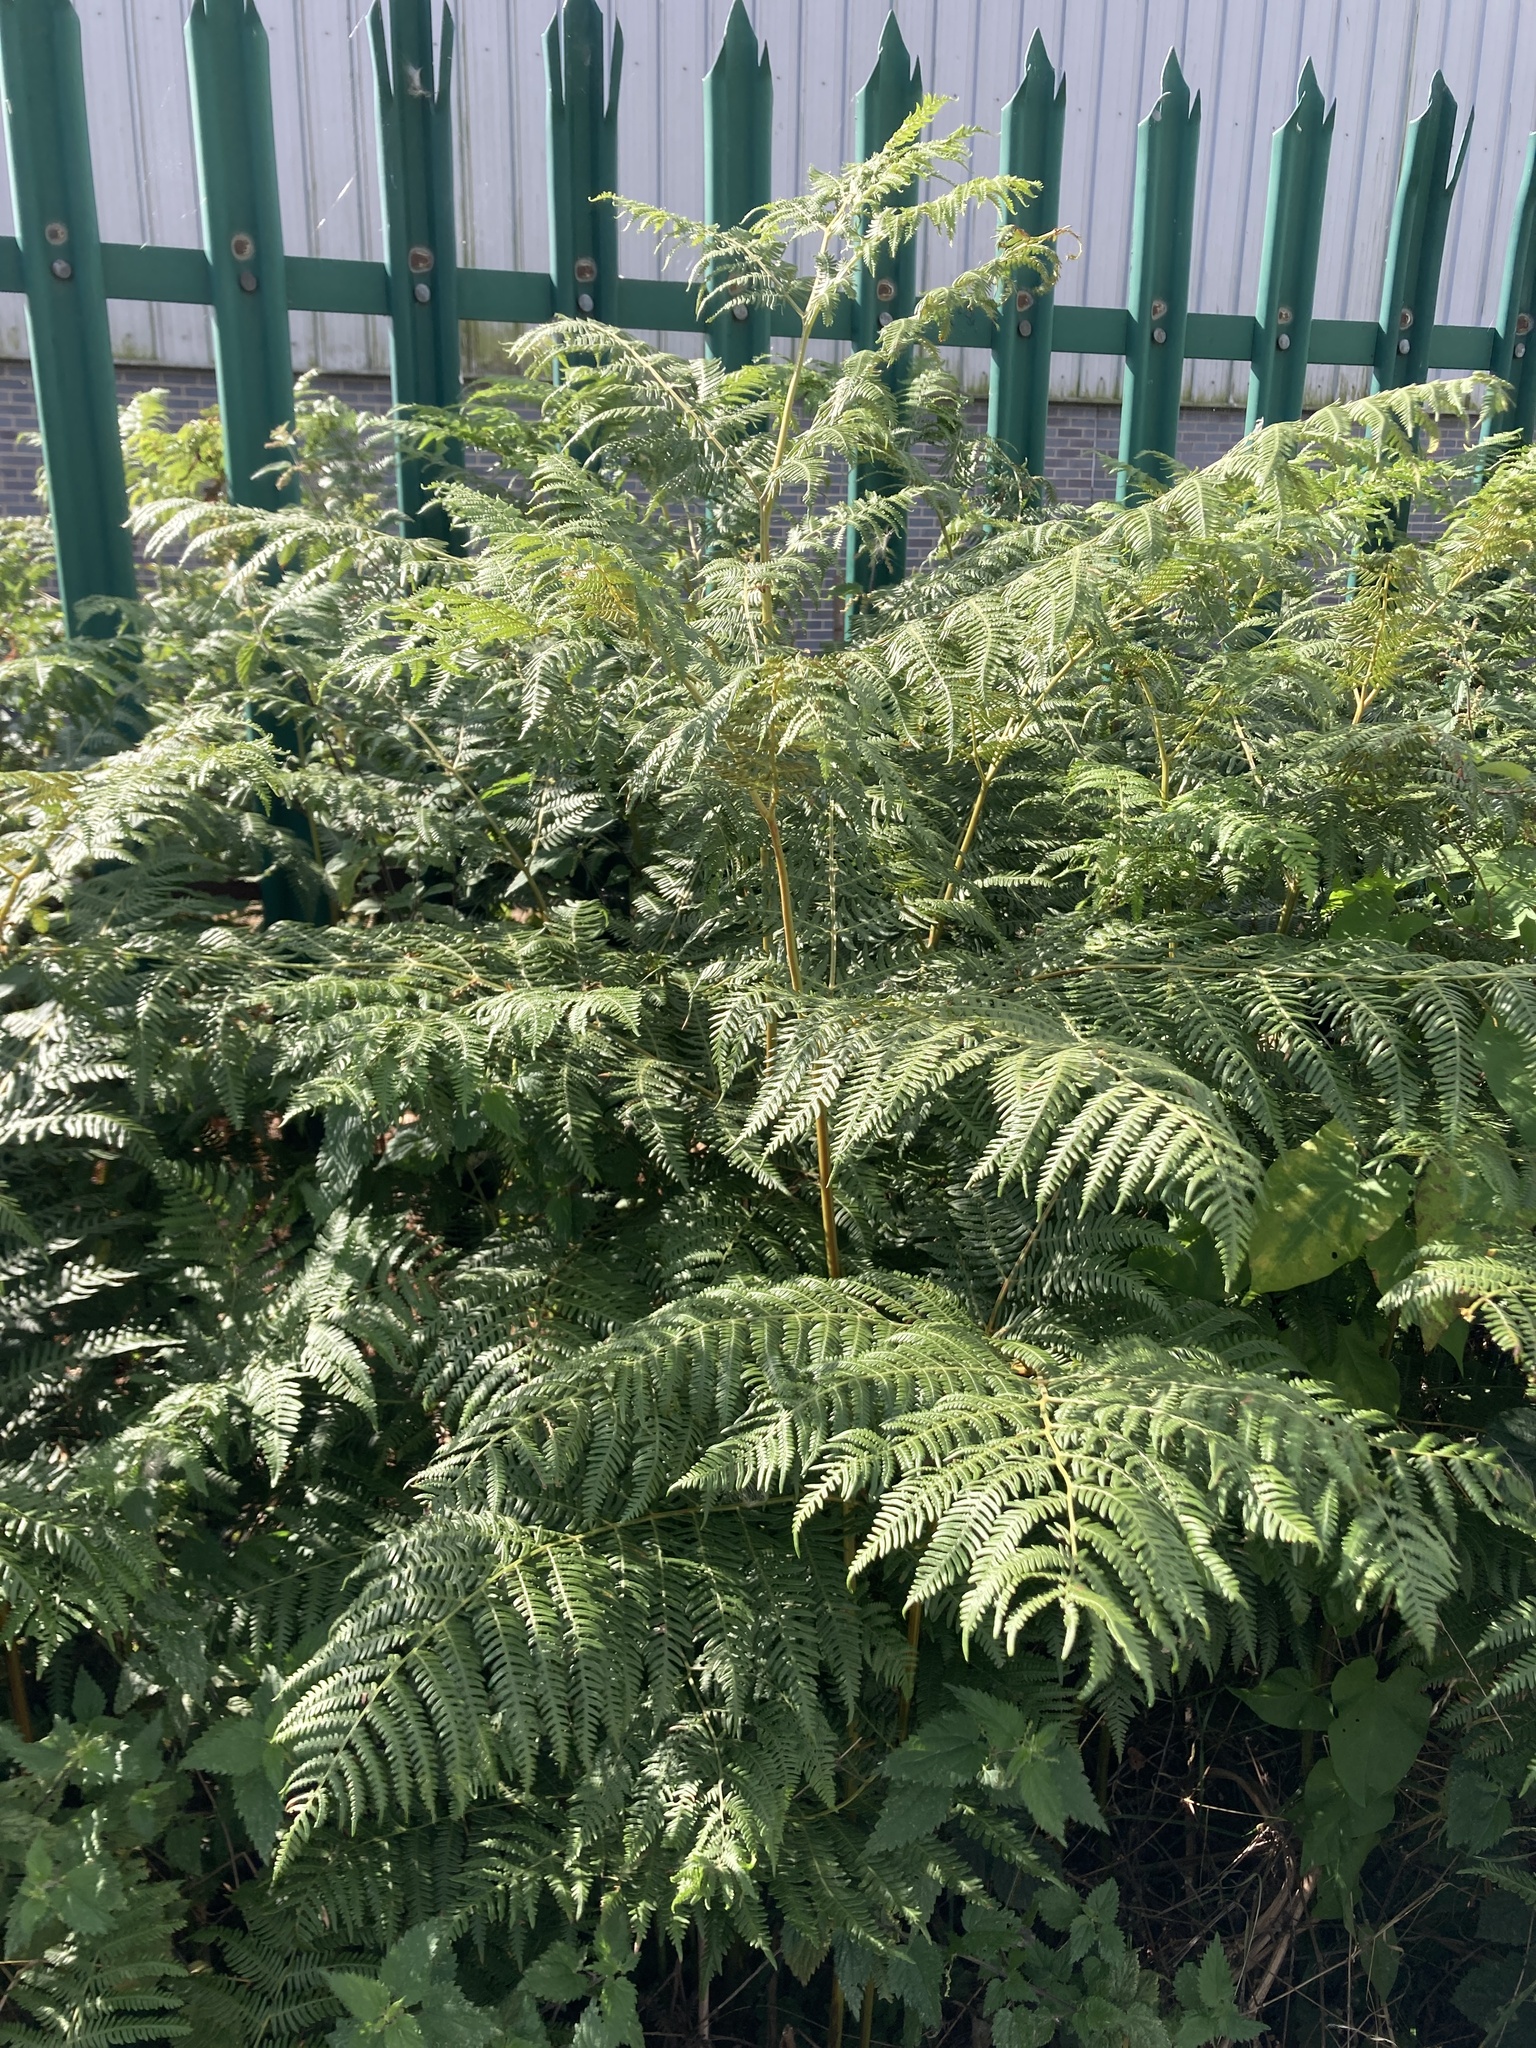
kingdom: Plantae
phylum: Tracheophyta
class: Polypodiopsida
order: Polypodiales
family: Dennstaedtiaceae
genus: Pteridium
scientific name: Pteridium aquilinum
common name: Bracken
